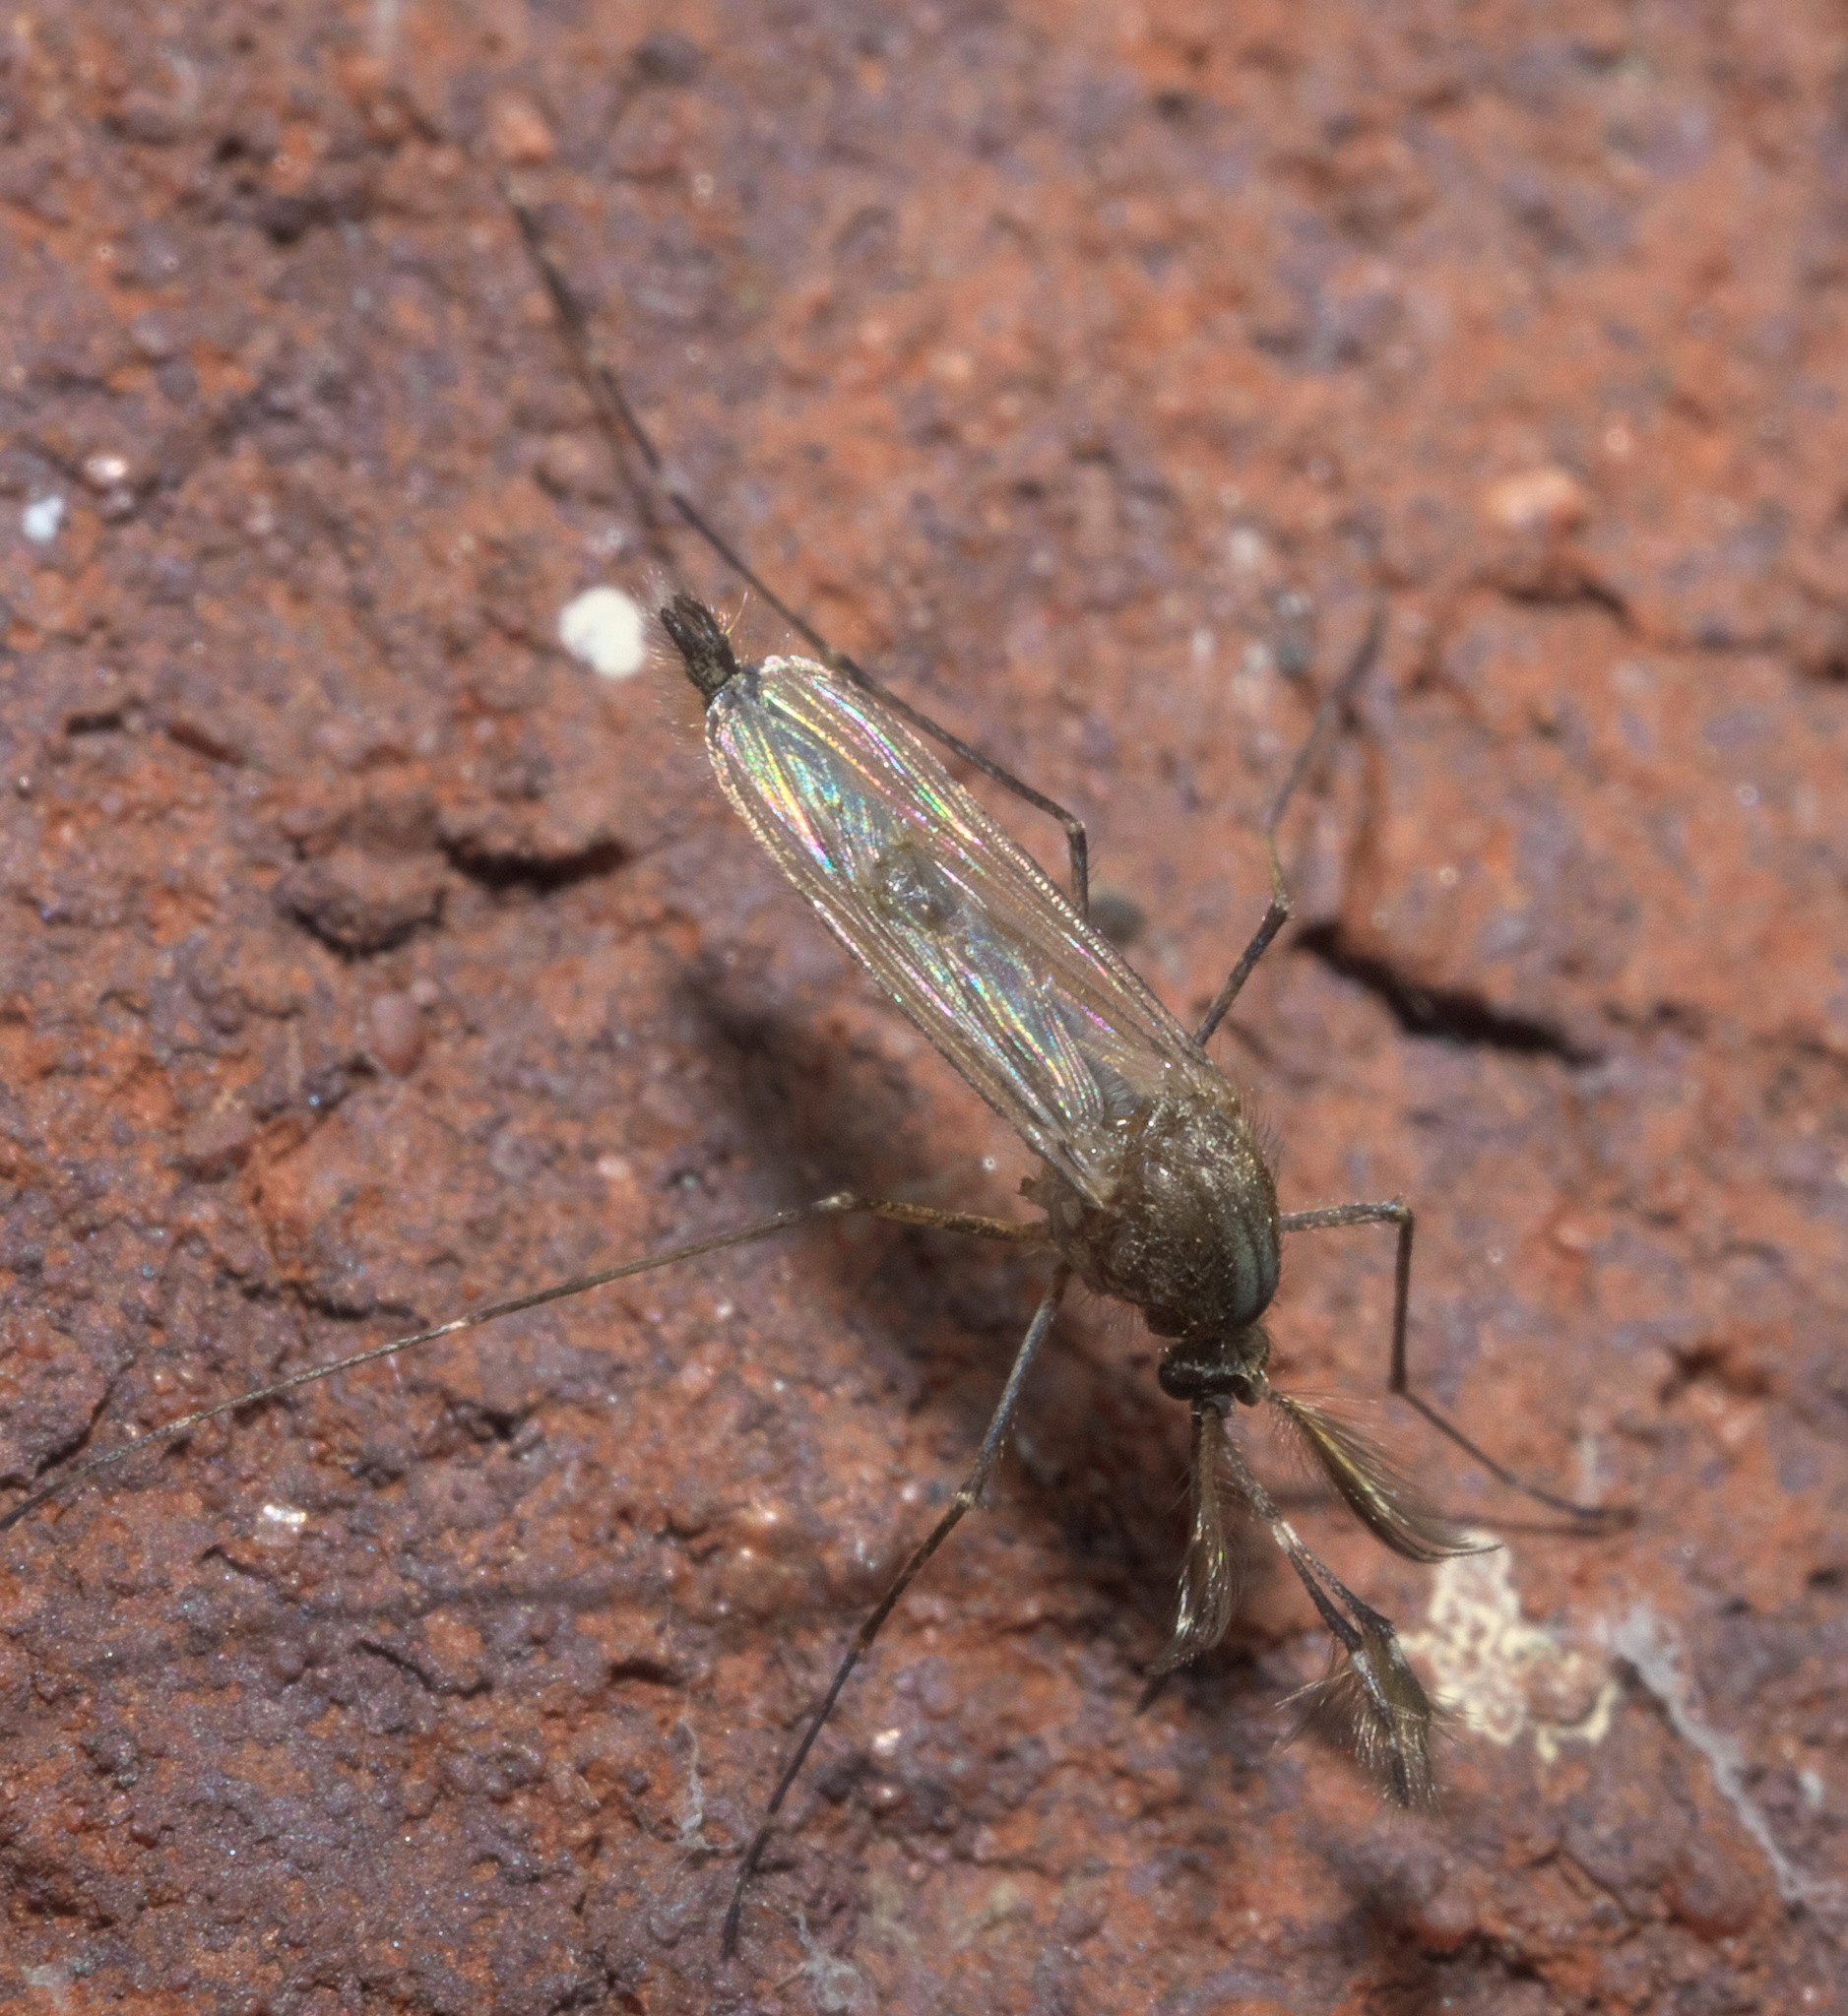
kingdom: Animalia
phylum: Arthropoda
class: Insecta
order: Diptera
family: Culicidae
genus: Aedes
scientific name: Aedes vexans
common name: Inland floodwater mosquito
